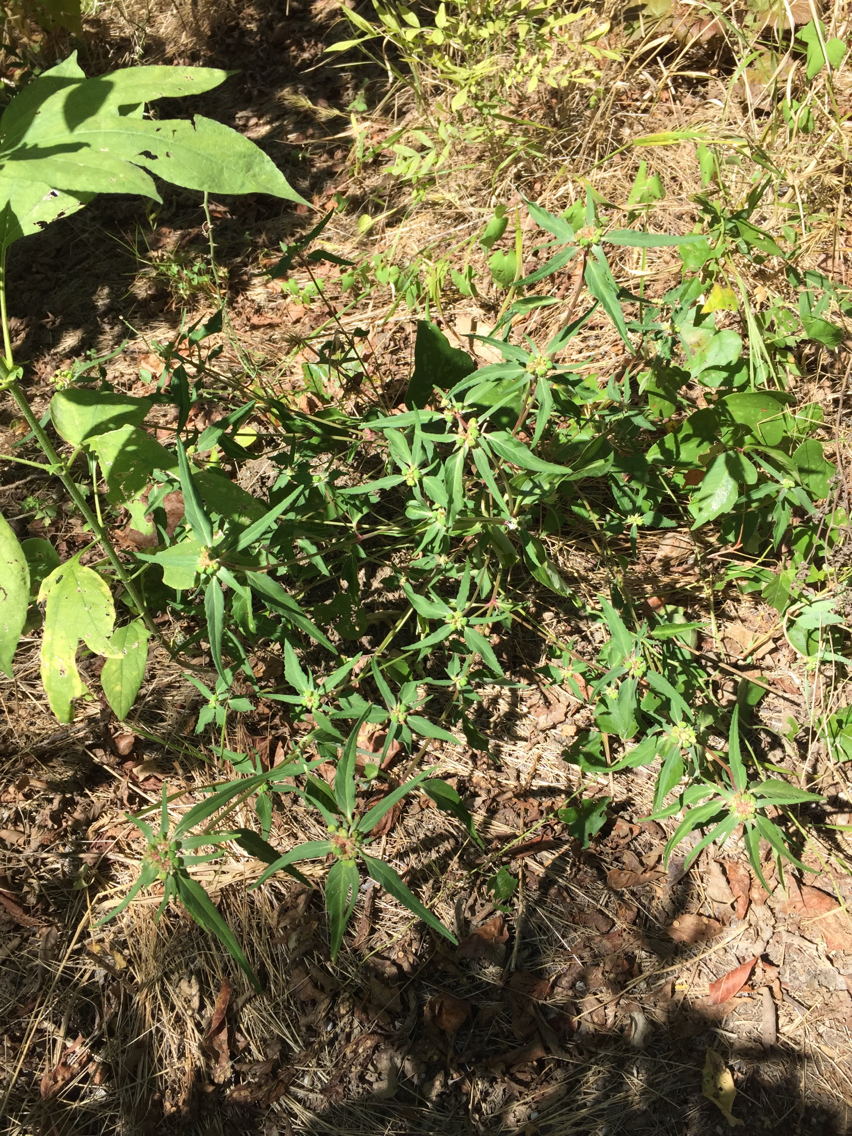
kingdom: Plantae
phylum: Tracheophyta
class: Magnoliopsida
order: Malpighiales
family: Euphorbiaceae
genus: Euphorbia
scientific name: Euphorbia dentata
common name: Dentate spurge
